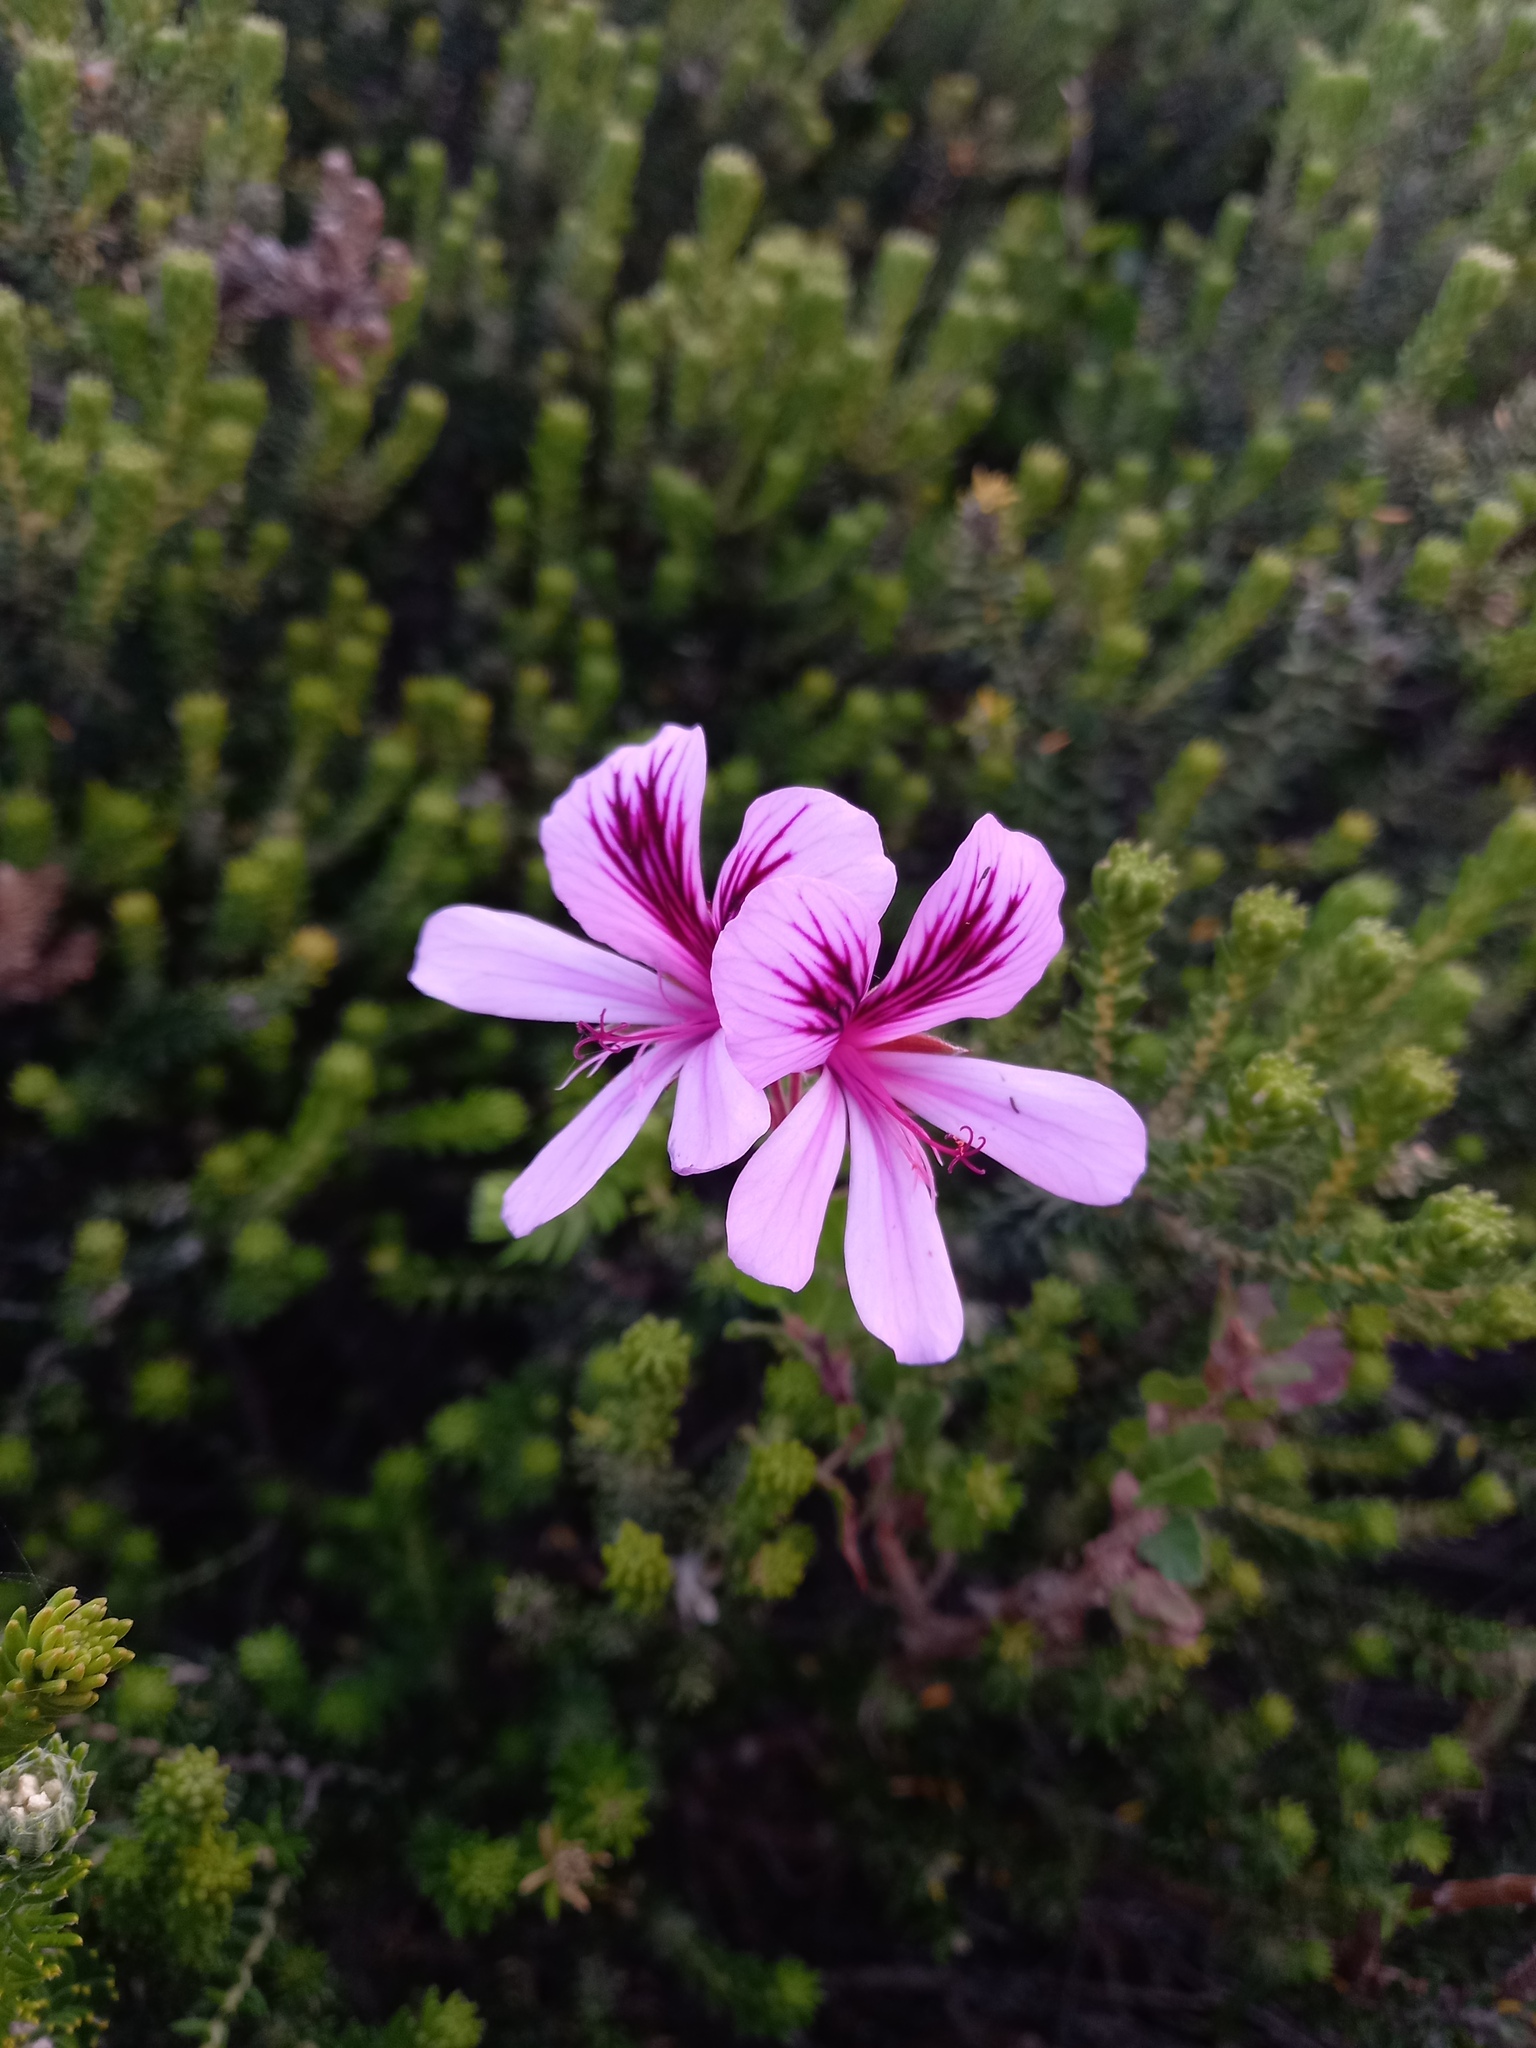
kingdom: Plantae
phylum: Tracheophyta
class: Magnoliopsida
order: Geraniales
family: Geraniaceae
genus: Pelargonium
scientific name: Pelargonium betulinum
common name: Birch-leaf pelargonium
